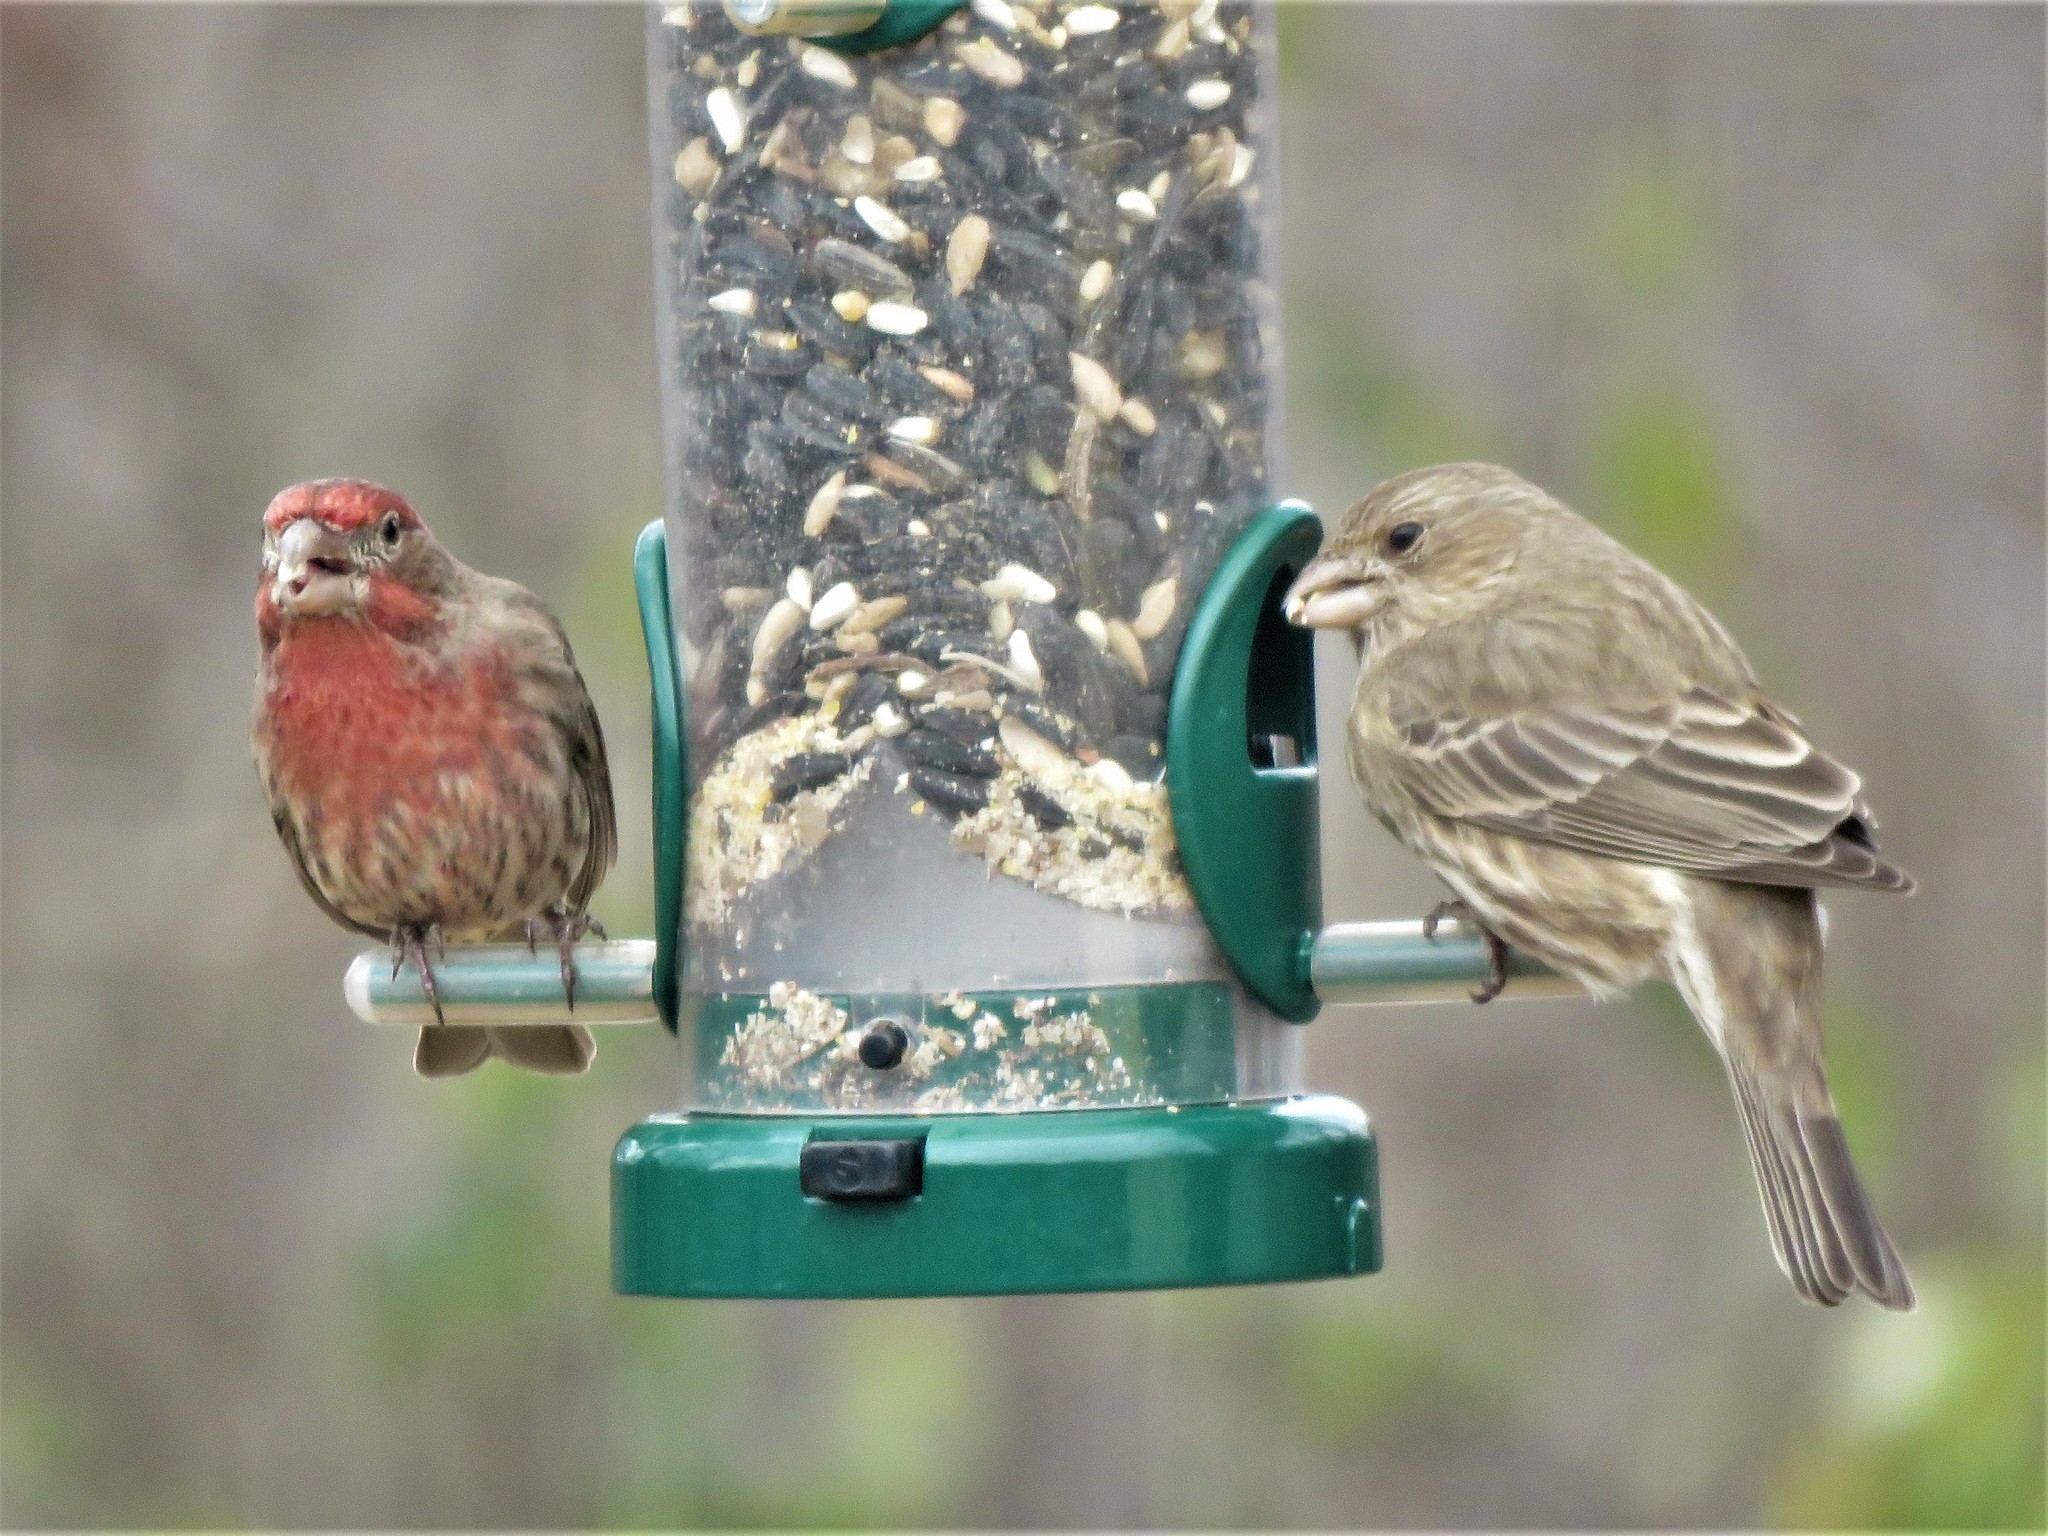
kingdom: Animalia
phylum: Chordata
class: Aves
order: Passeriformes
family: Fringillidae
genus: Haemorhous
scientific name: Haemorhous mexicanus
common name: House finch
